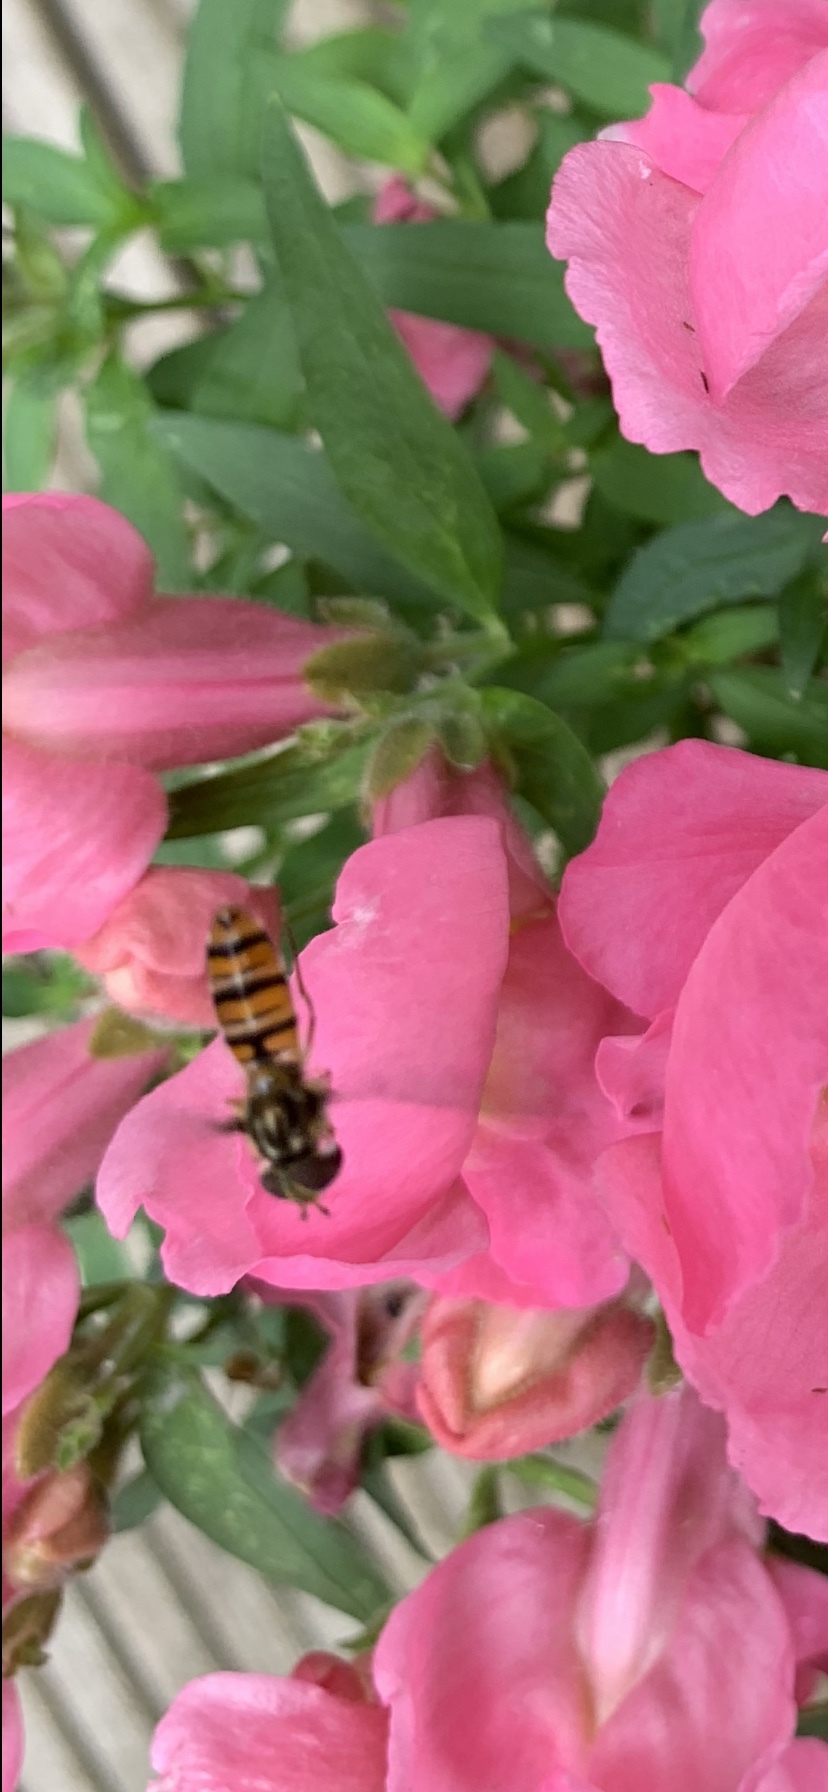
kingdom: Animalia
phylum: Arthropoda
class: Insecta
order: Diptera
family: Syrphidae
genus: Episyrphus
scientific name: Episyrphus balteatus
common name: Marmalade hoverfly
